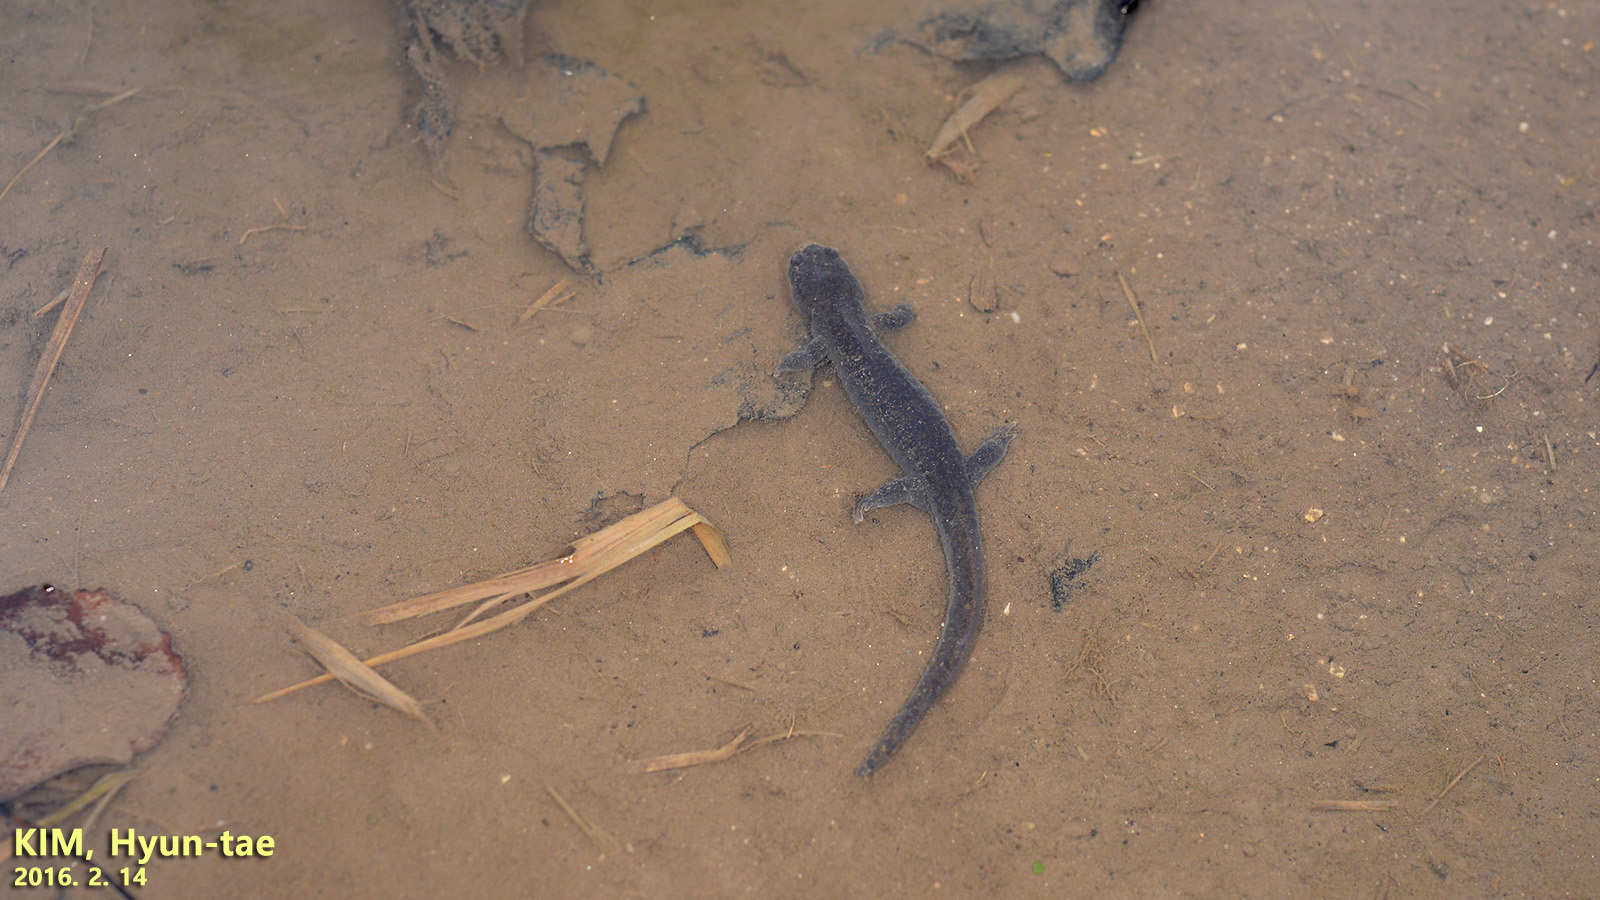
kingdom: Animalia
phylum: Chordata
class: Amphibia
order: Caudata
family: Hynobiidae
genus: Hynobius
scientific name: Hynobius leechii
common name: Gensan salamander
